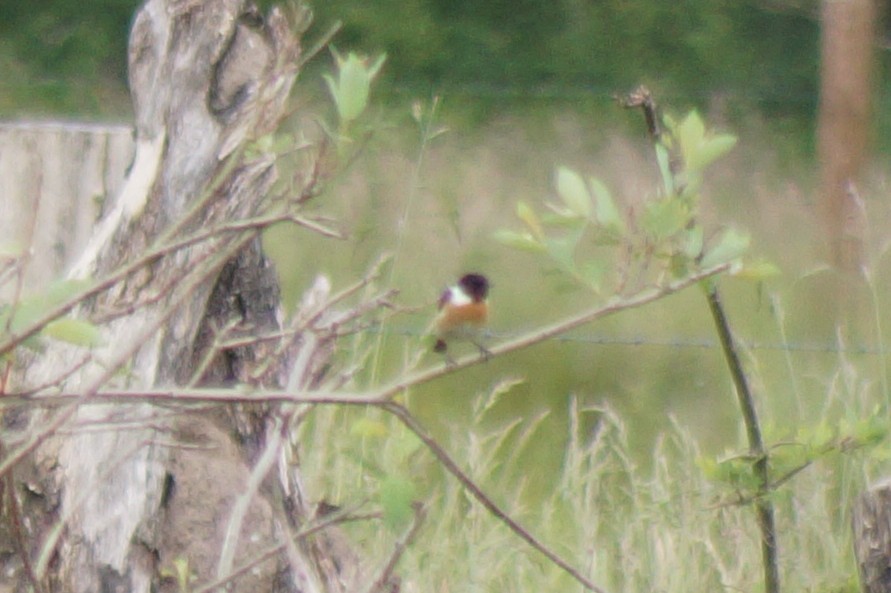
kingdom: Animalia
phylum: Chordata
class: Aves
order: Passeriformes
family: Muscicapidae
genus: Saxicola
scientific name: Saxicola rubicola
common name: European stonechat
